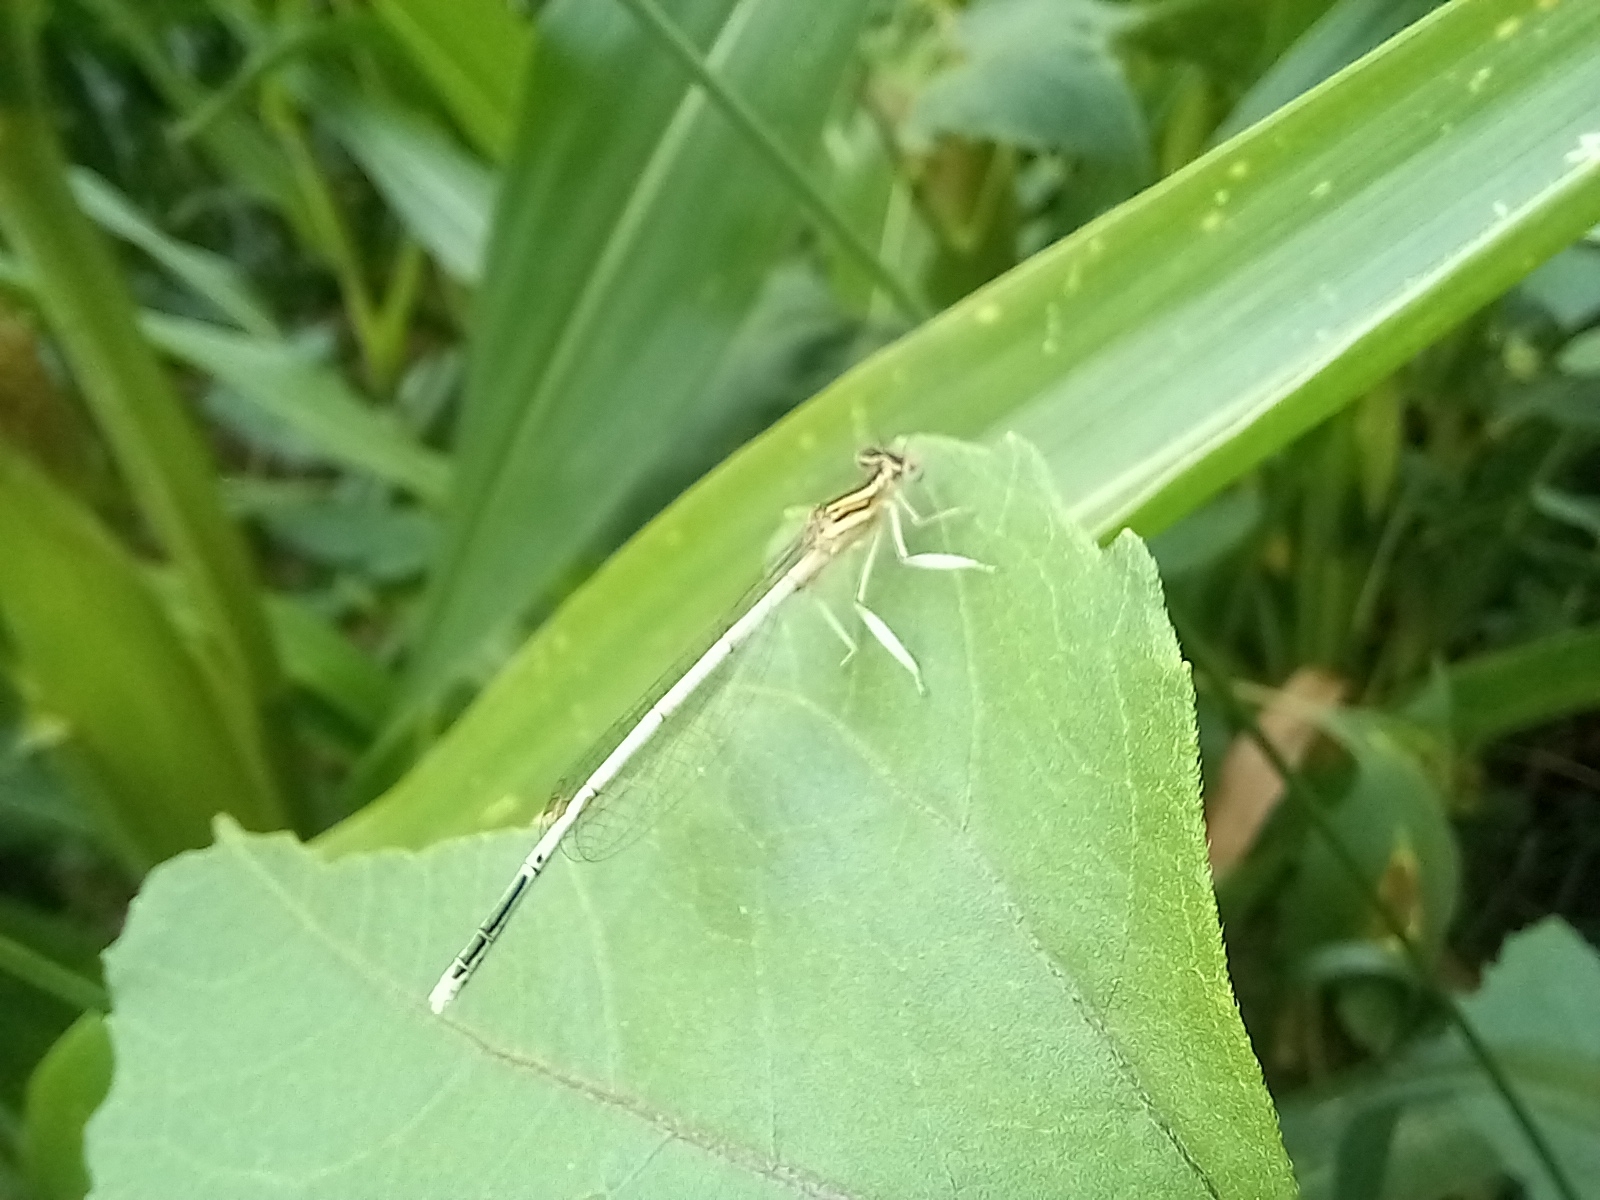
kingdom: Animalia
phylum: Arthropoda
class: Insecta
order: Odonata
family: Platycnemididae
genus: Platycnemis
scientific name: Platycnemis latipes
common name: White featherleg
